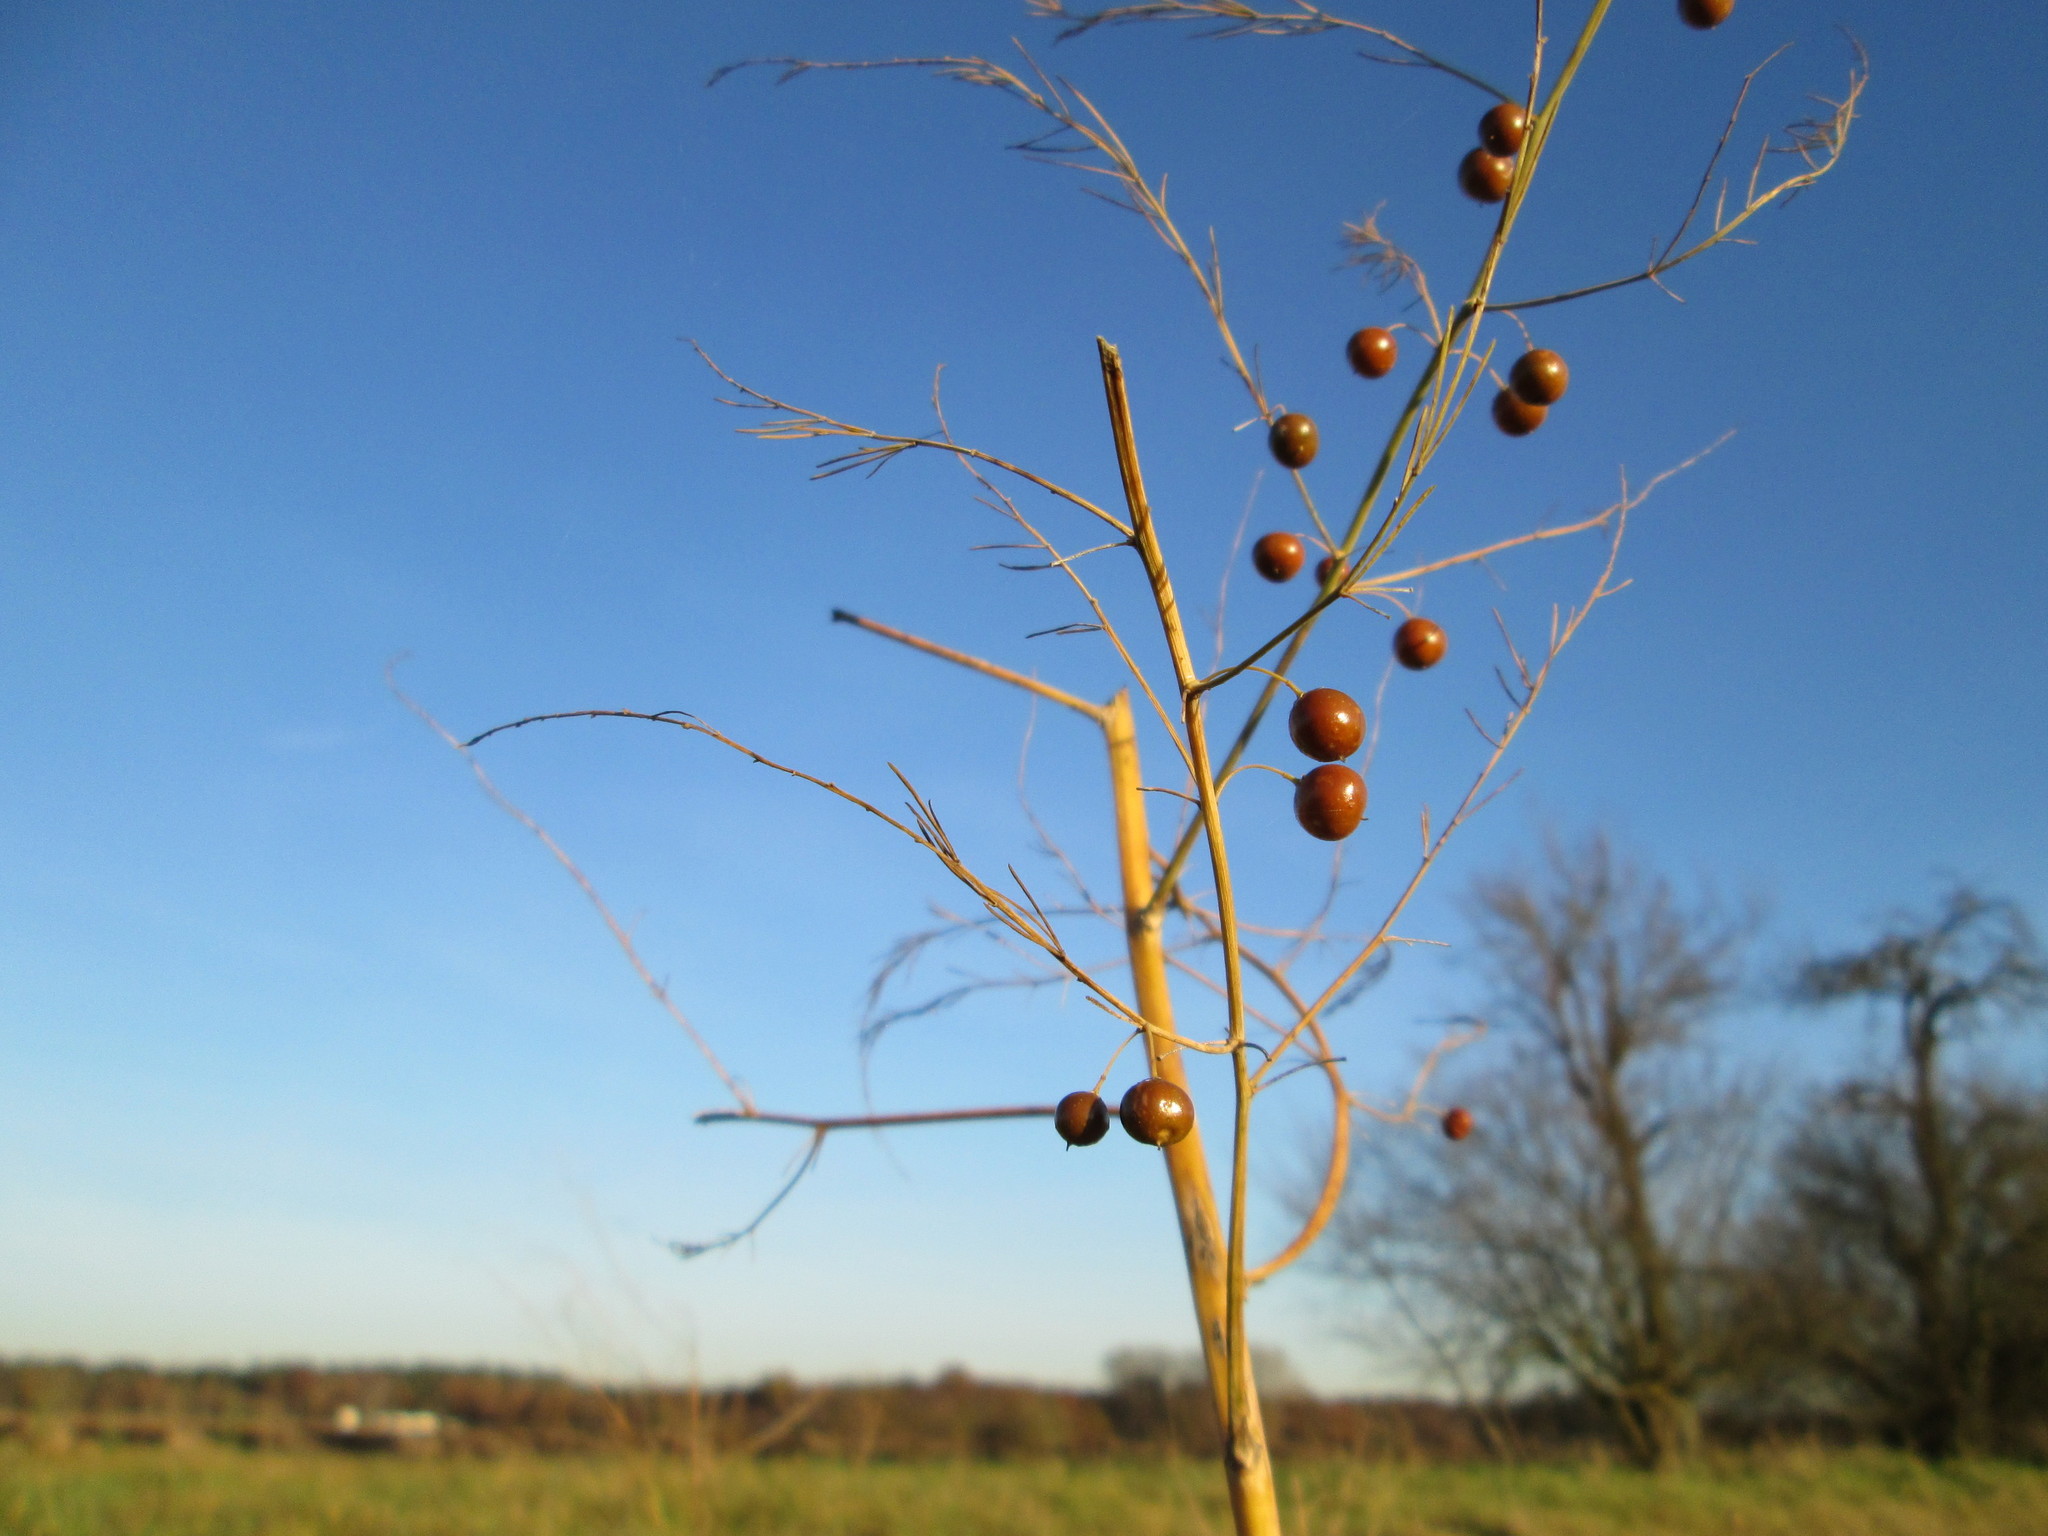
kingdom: Plantae
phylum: Tracheophyta
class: Liliopsida
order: Asparagales
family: Asparagaceae
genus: Asparagus
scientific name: Asparagus officinalis
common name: Garden asparagus
